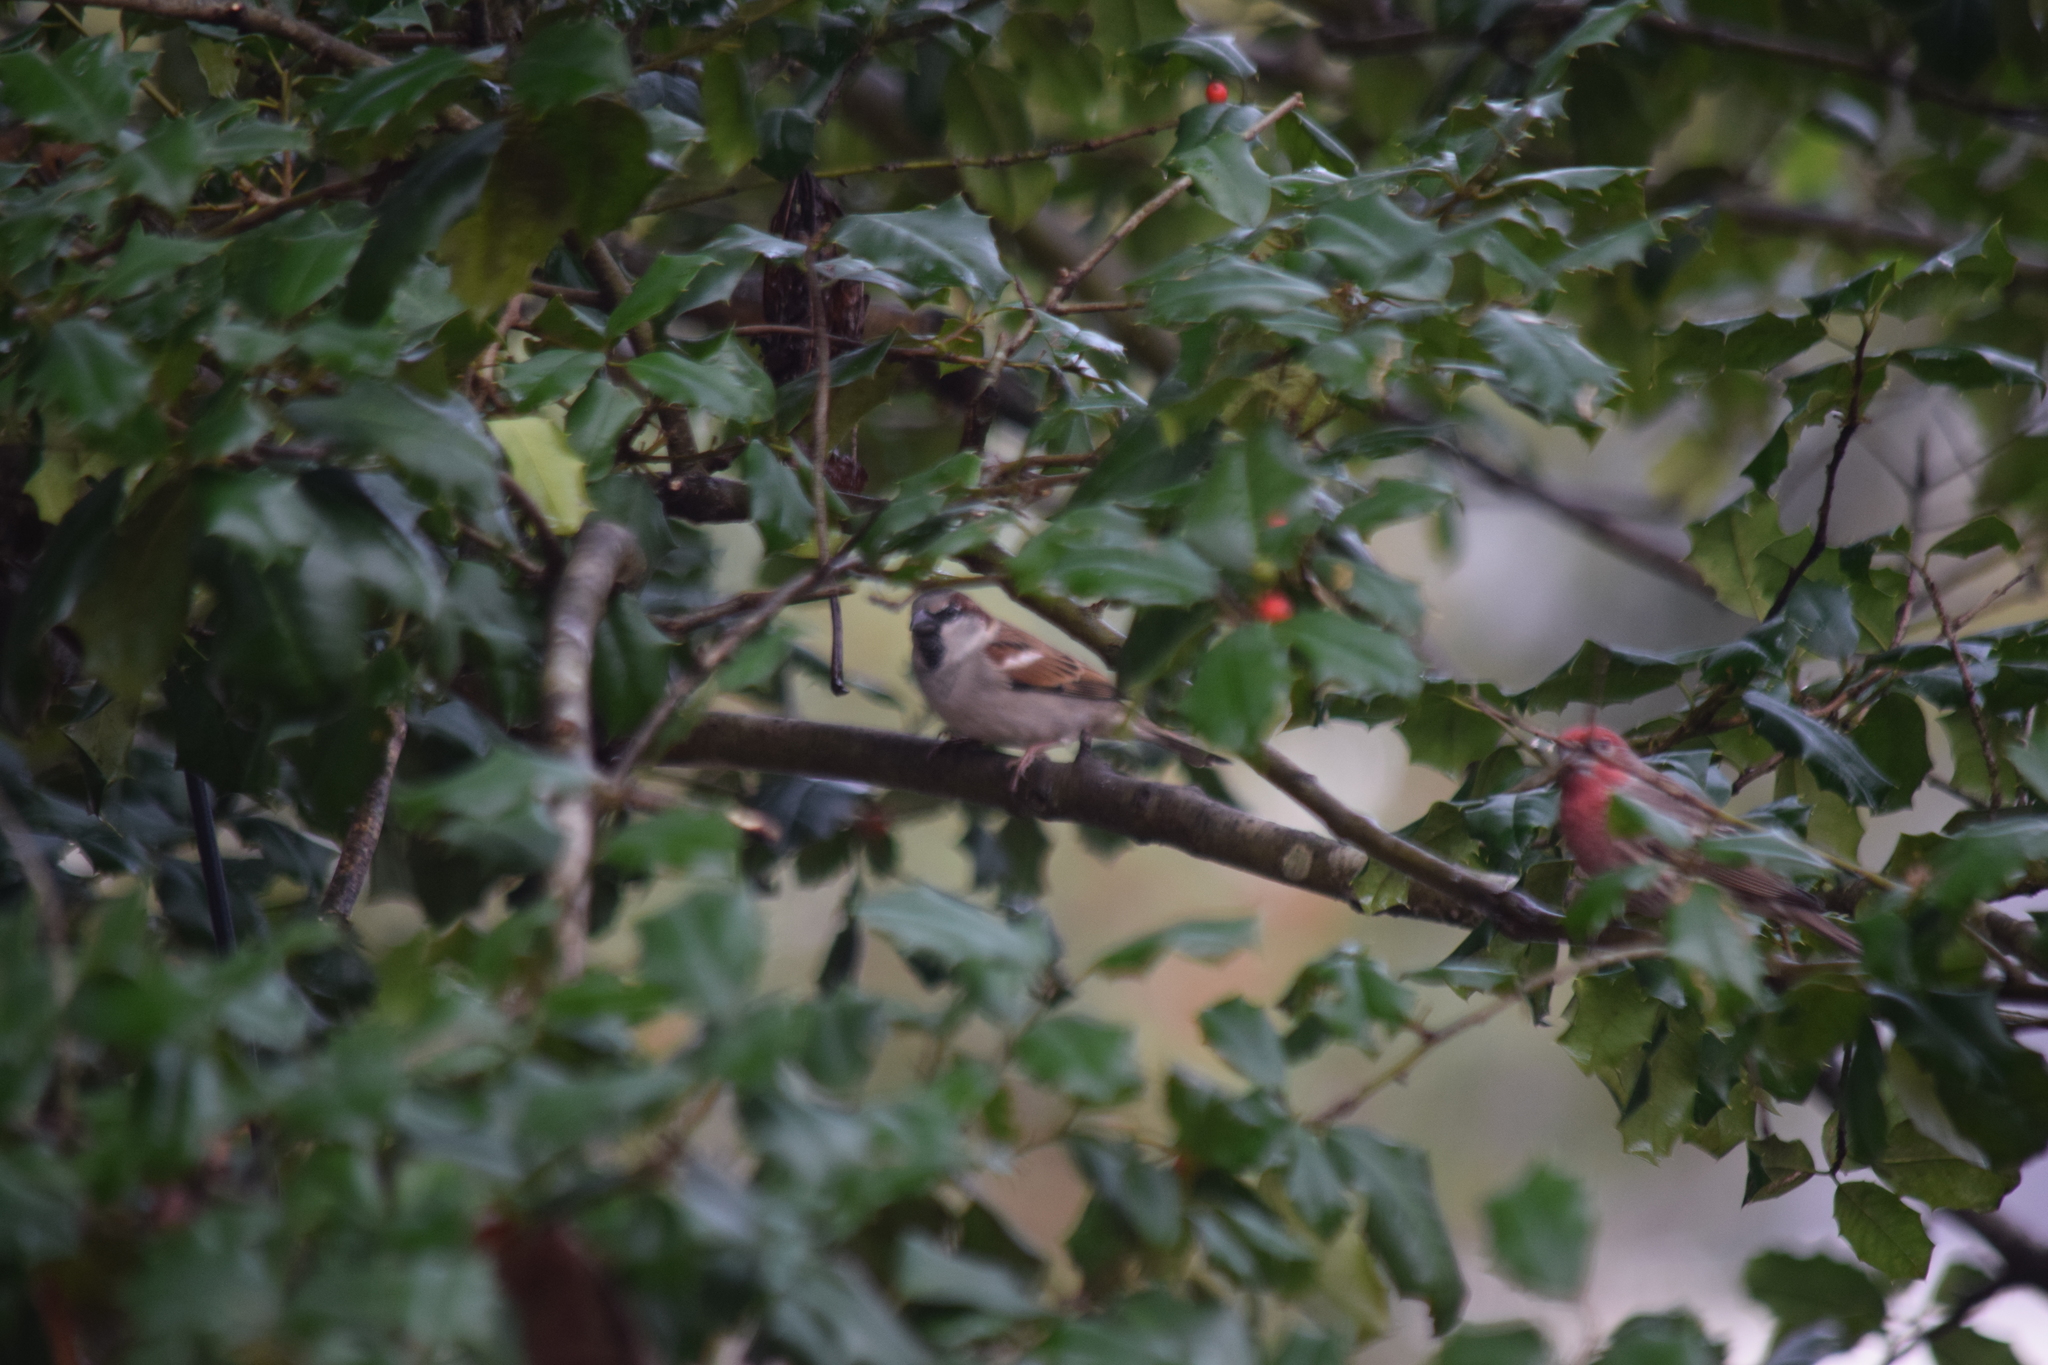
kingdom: Animalia
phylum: Chordata
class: Aves
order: Passeriformes
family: Passeridae
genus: Passer
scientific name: Passer domesticus
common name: House sparrow
